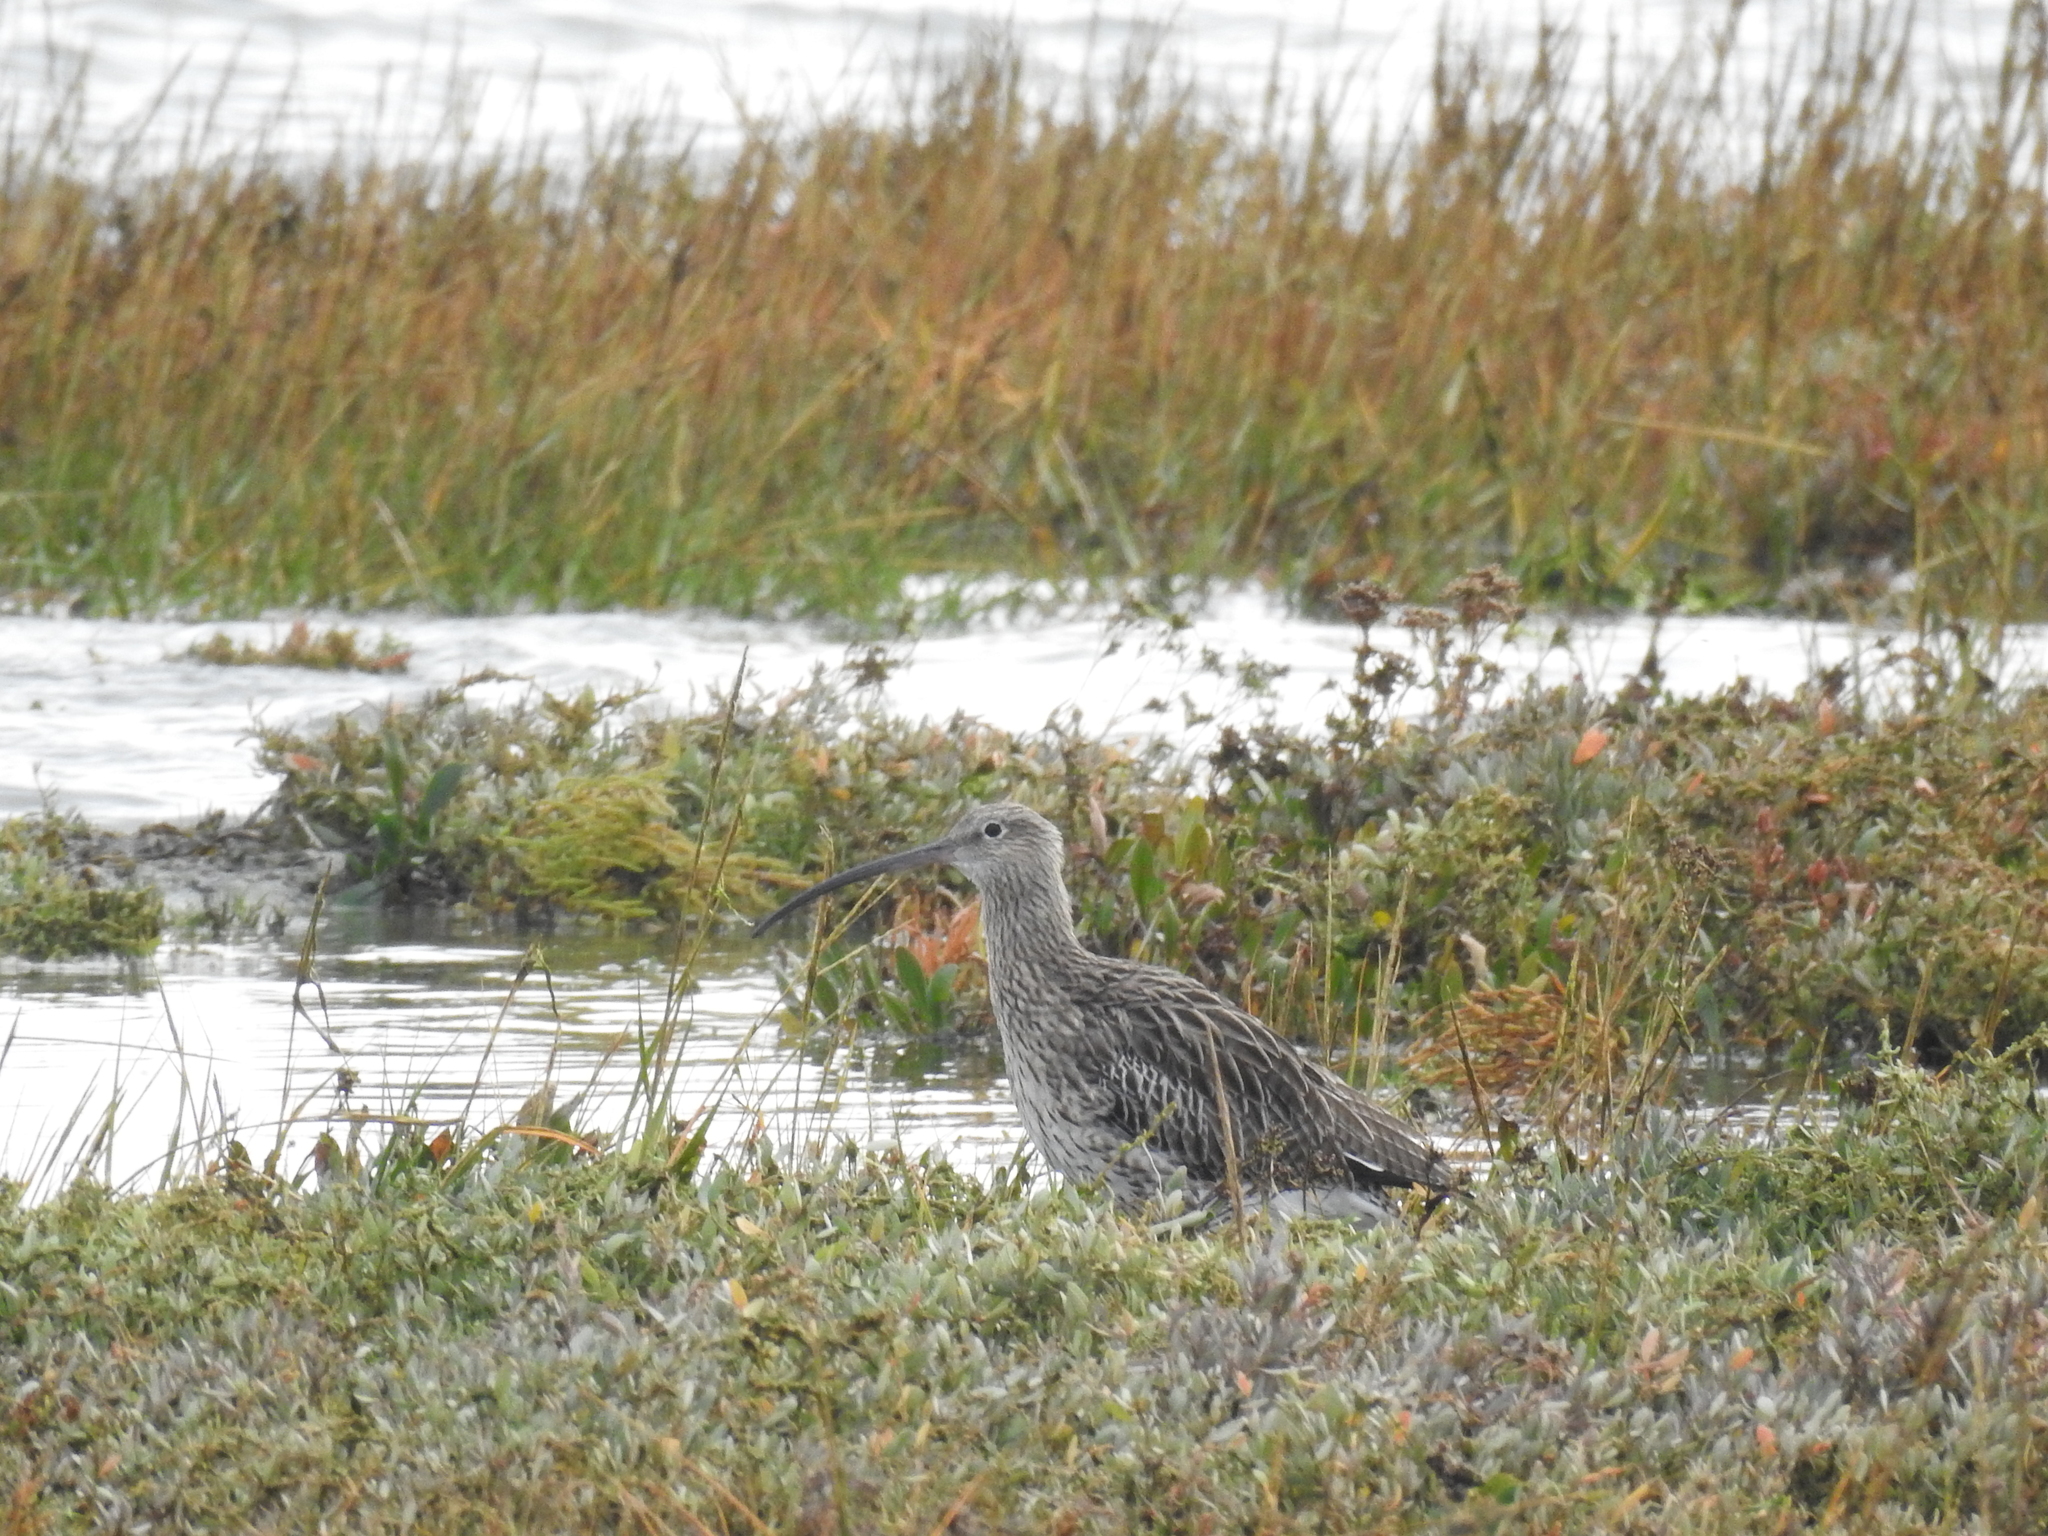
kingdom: Animalia
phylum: Chordata
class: Aves
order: Charadriiformes
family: Scolopacidae
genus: Numenius
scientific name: Numenius arquata
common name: Eurasian curlew
